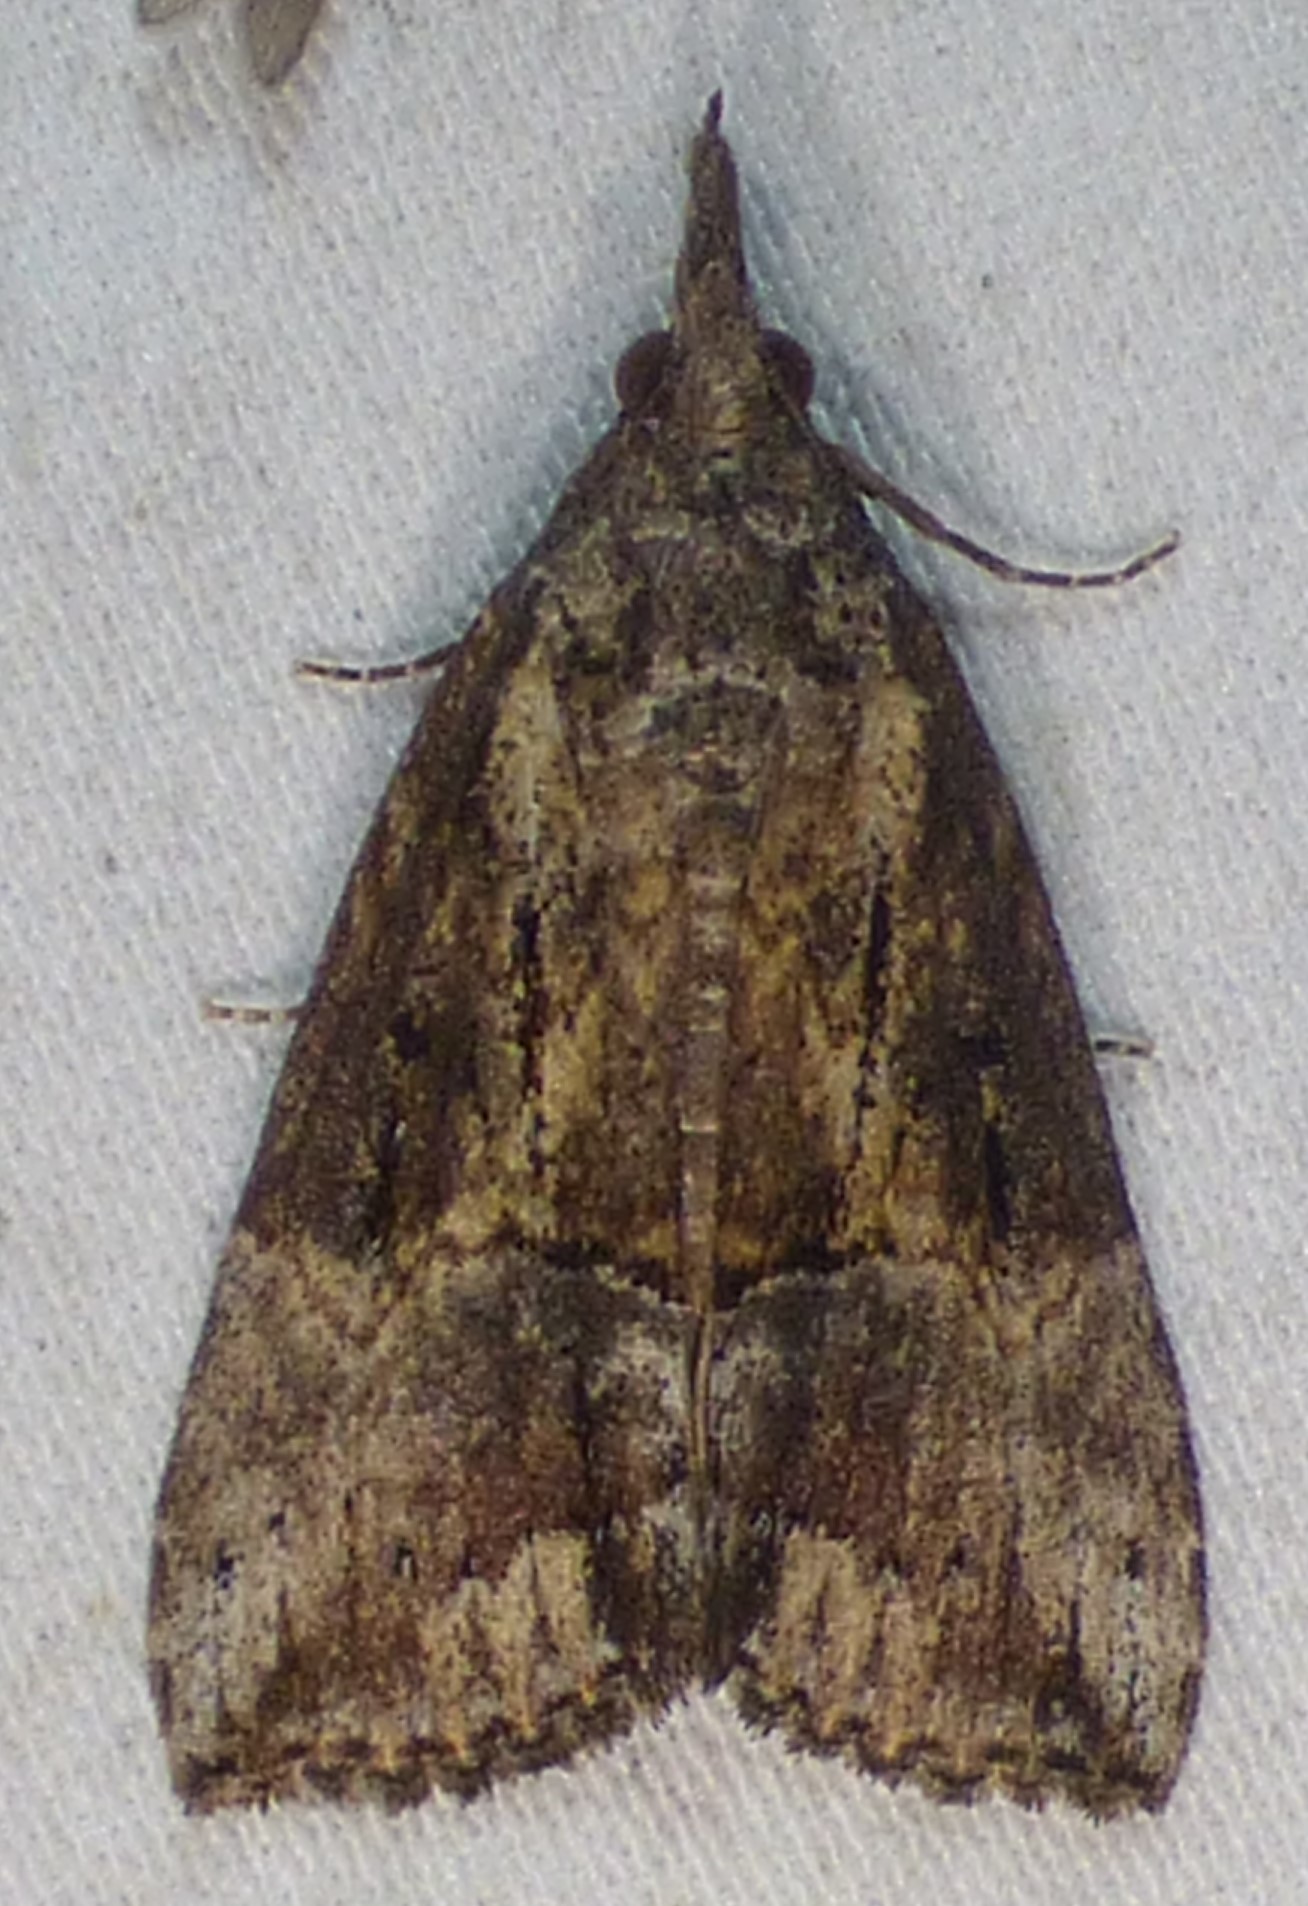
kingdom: Animalia
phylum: Arthropoda
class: Insecta
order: Lepidoptera
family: Erebidae
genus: Hypena
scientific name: Hypena scabra
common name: Green cloverworm
